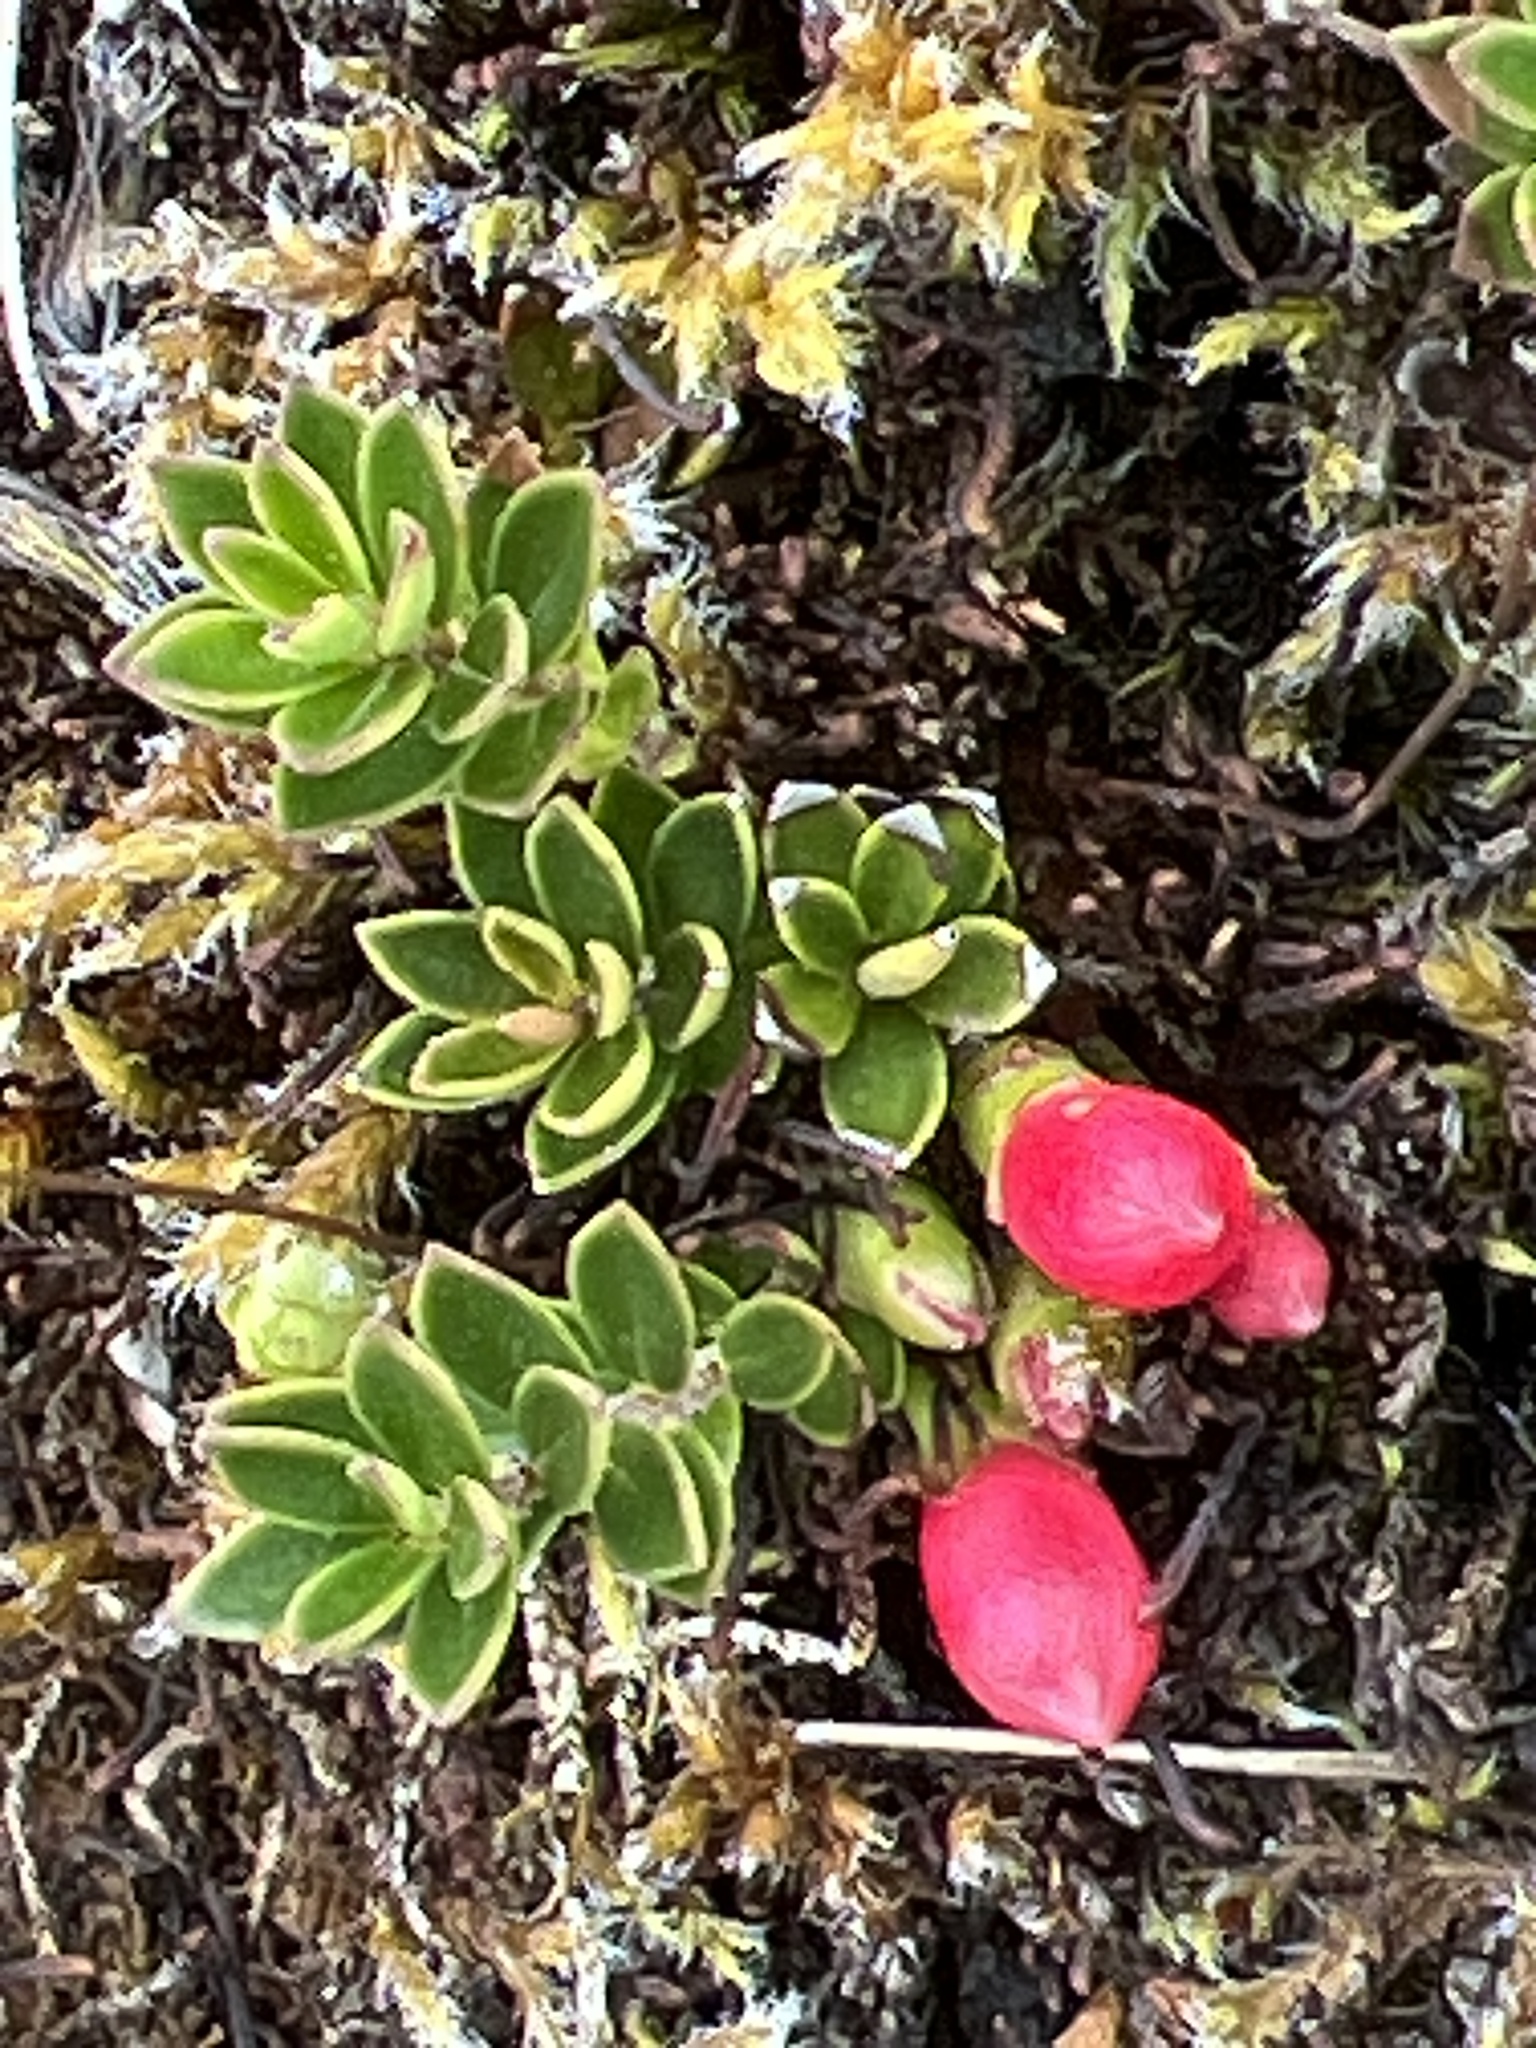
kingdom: Plantae
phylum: Tracheophyta
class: Magnoliopsida
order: Ericales
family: Ericaceae
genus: Disterigma
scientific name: Disterigma empetrifolium
